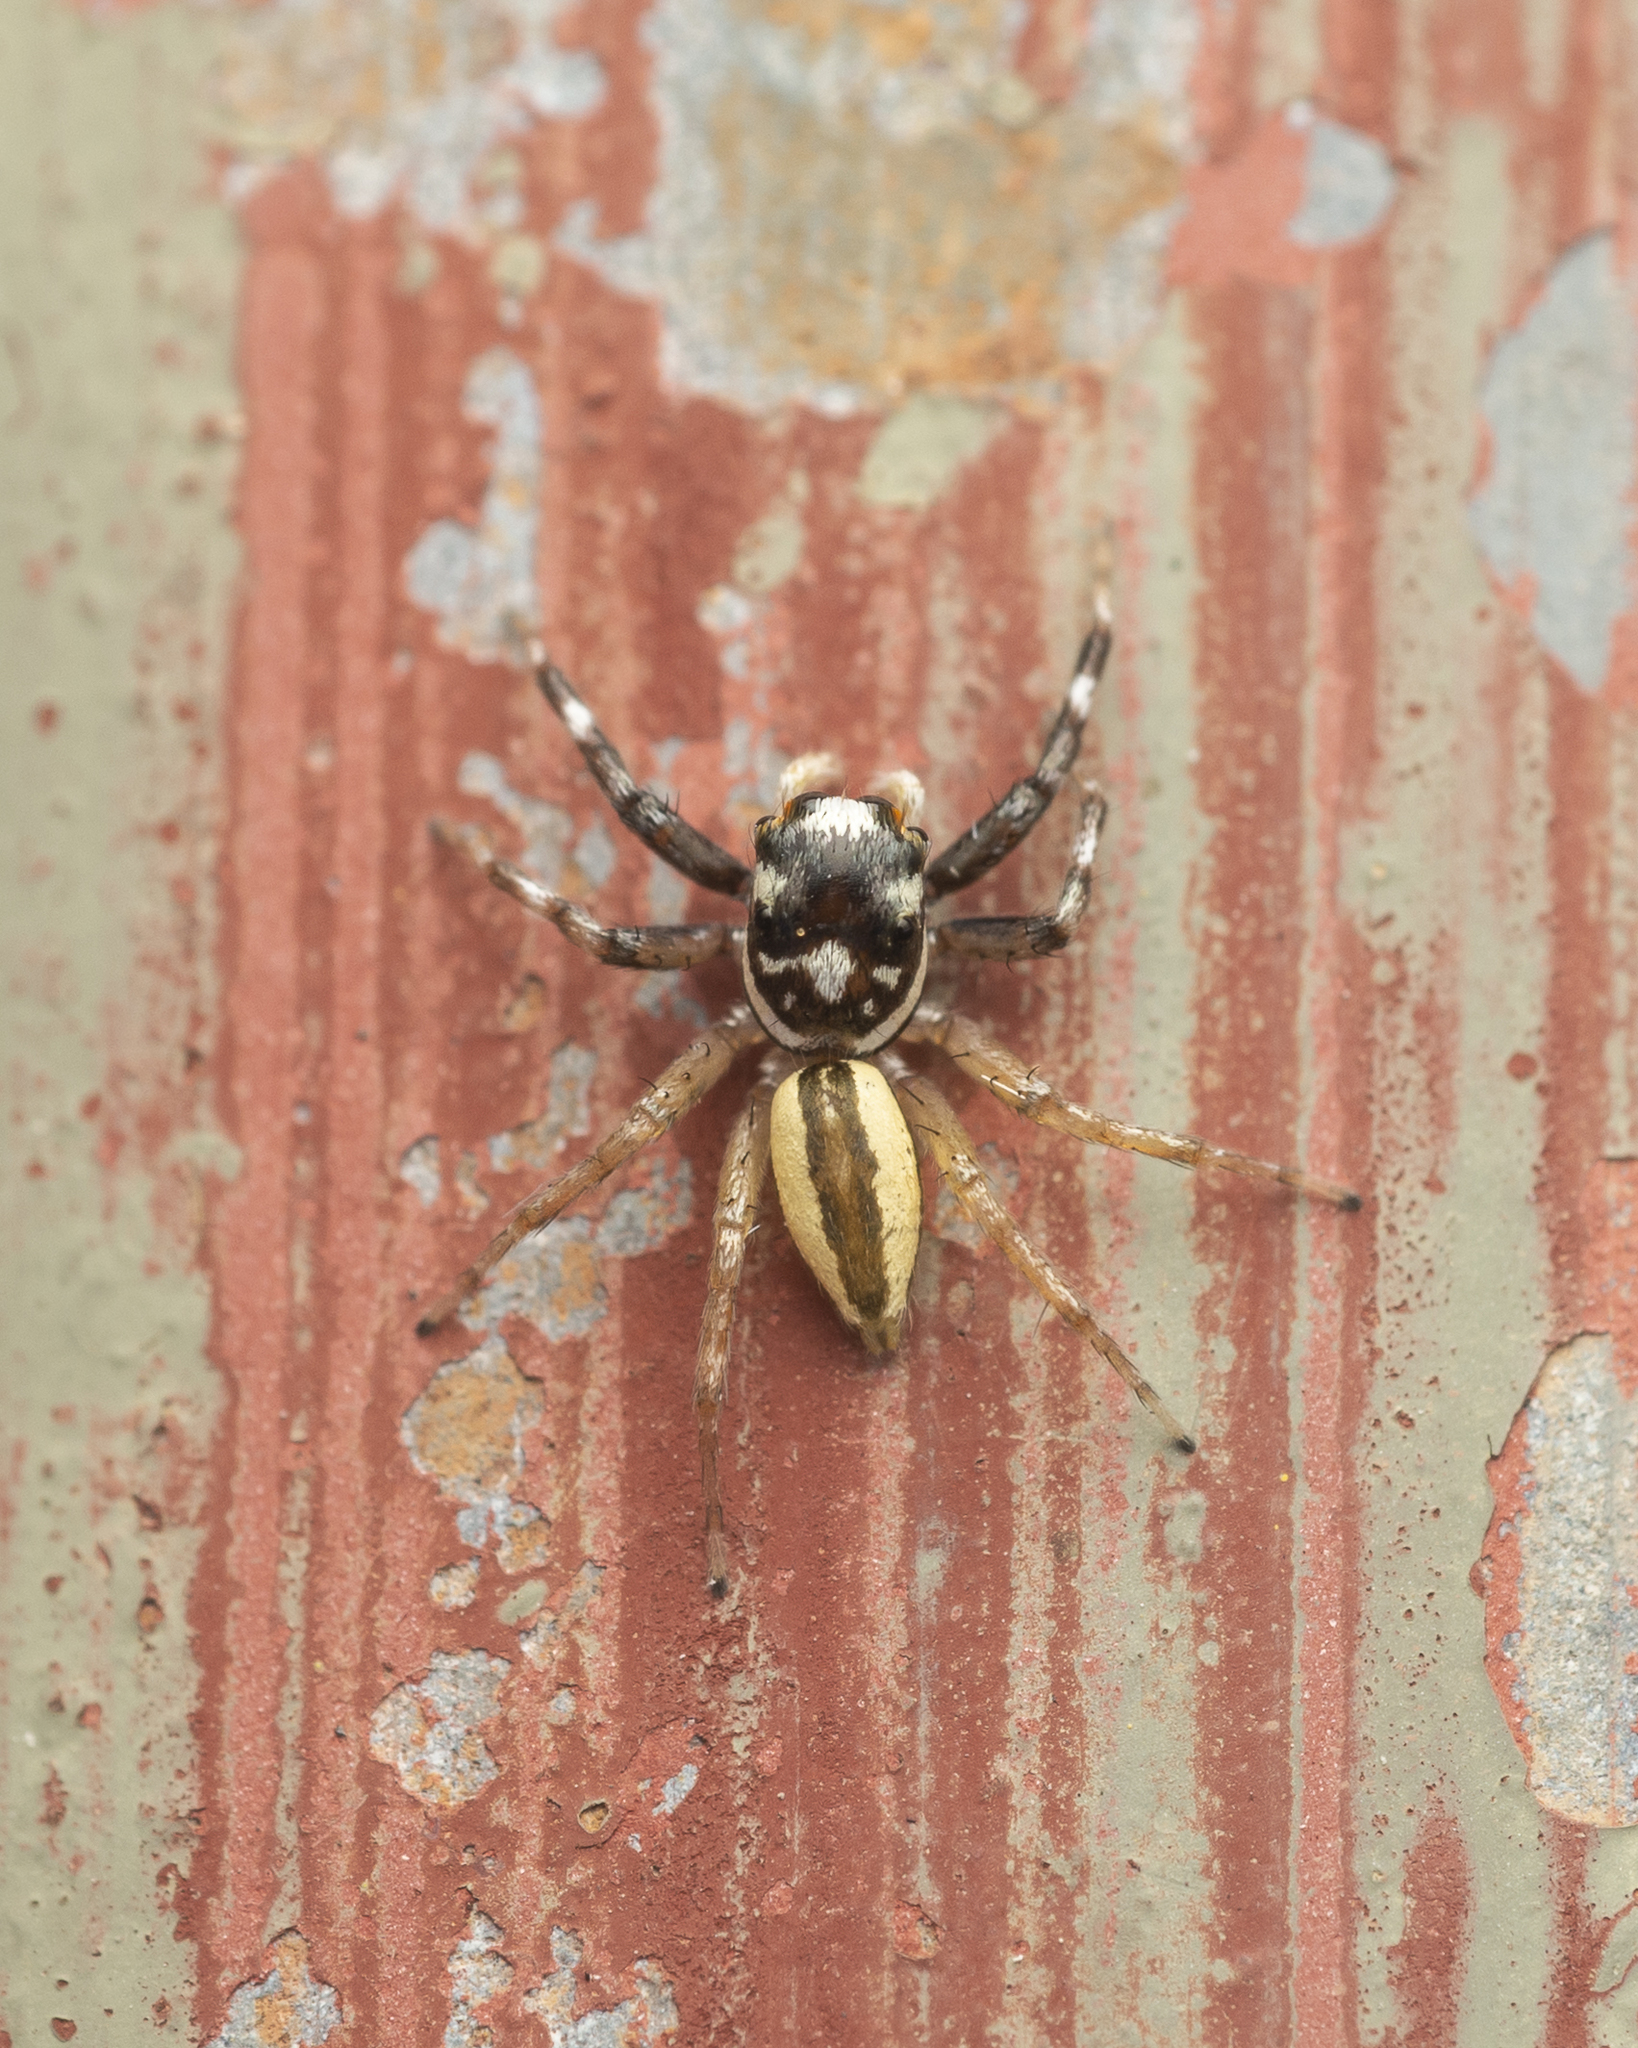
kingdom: Animalia
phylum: Arthropoda
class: Arachnida
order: Araneae
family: Salticidae
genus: Phintelloides
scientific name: Phintelloides versicolor
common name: Jumping spider
